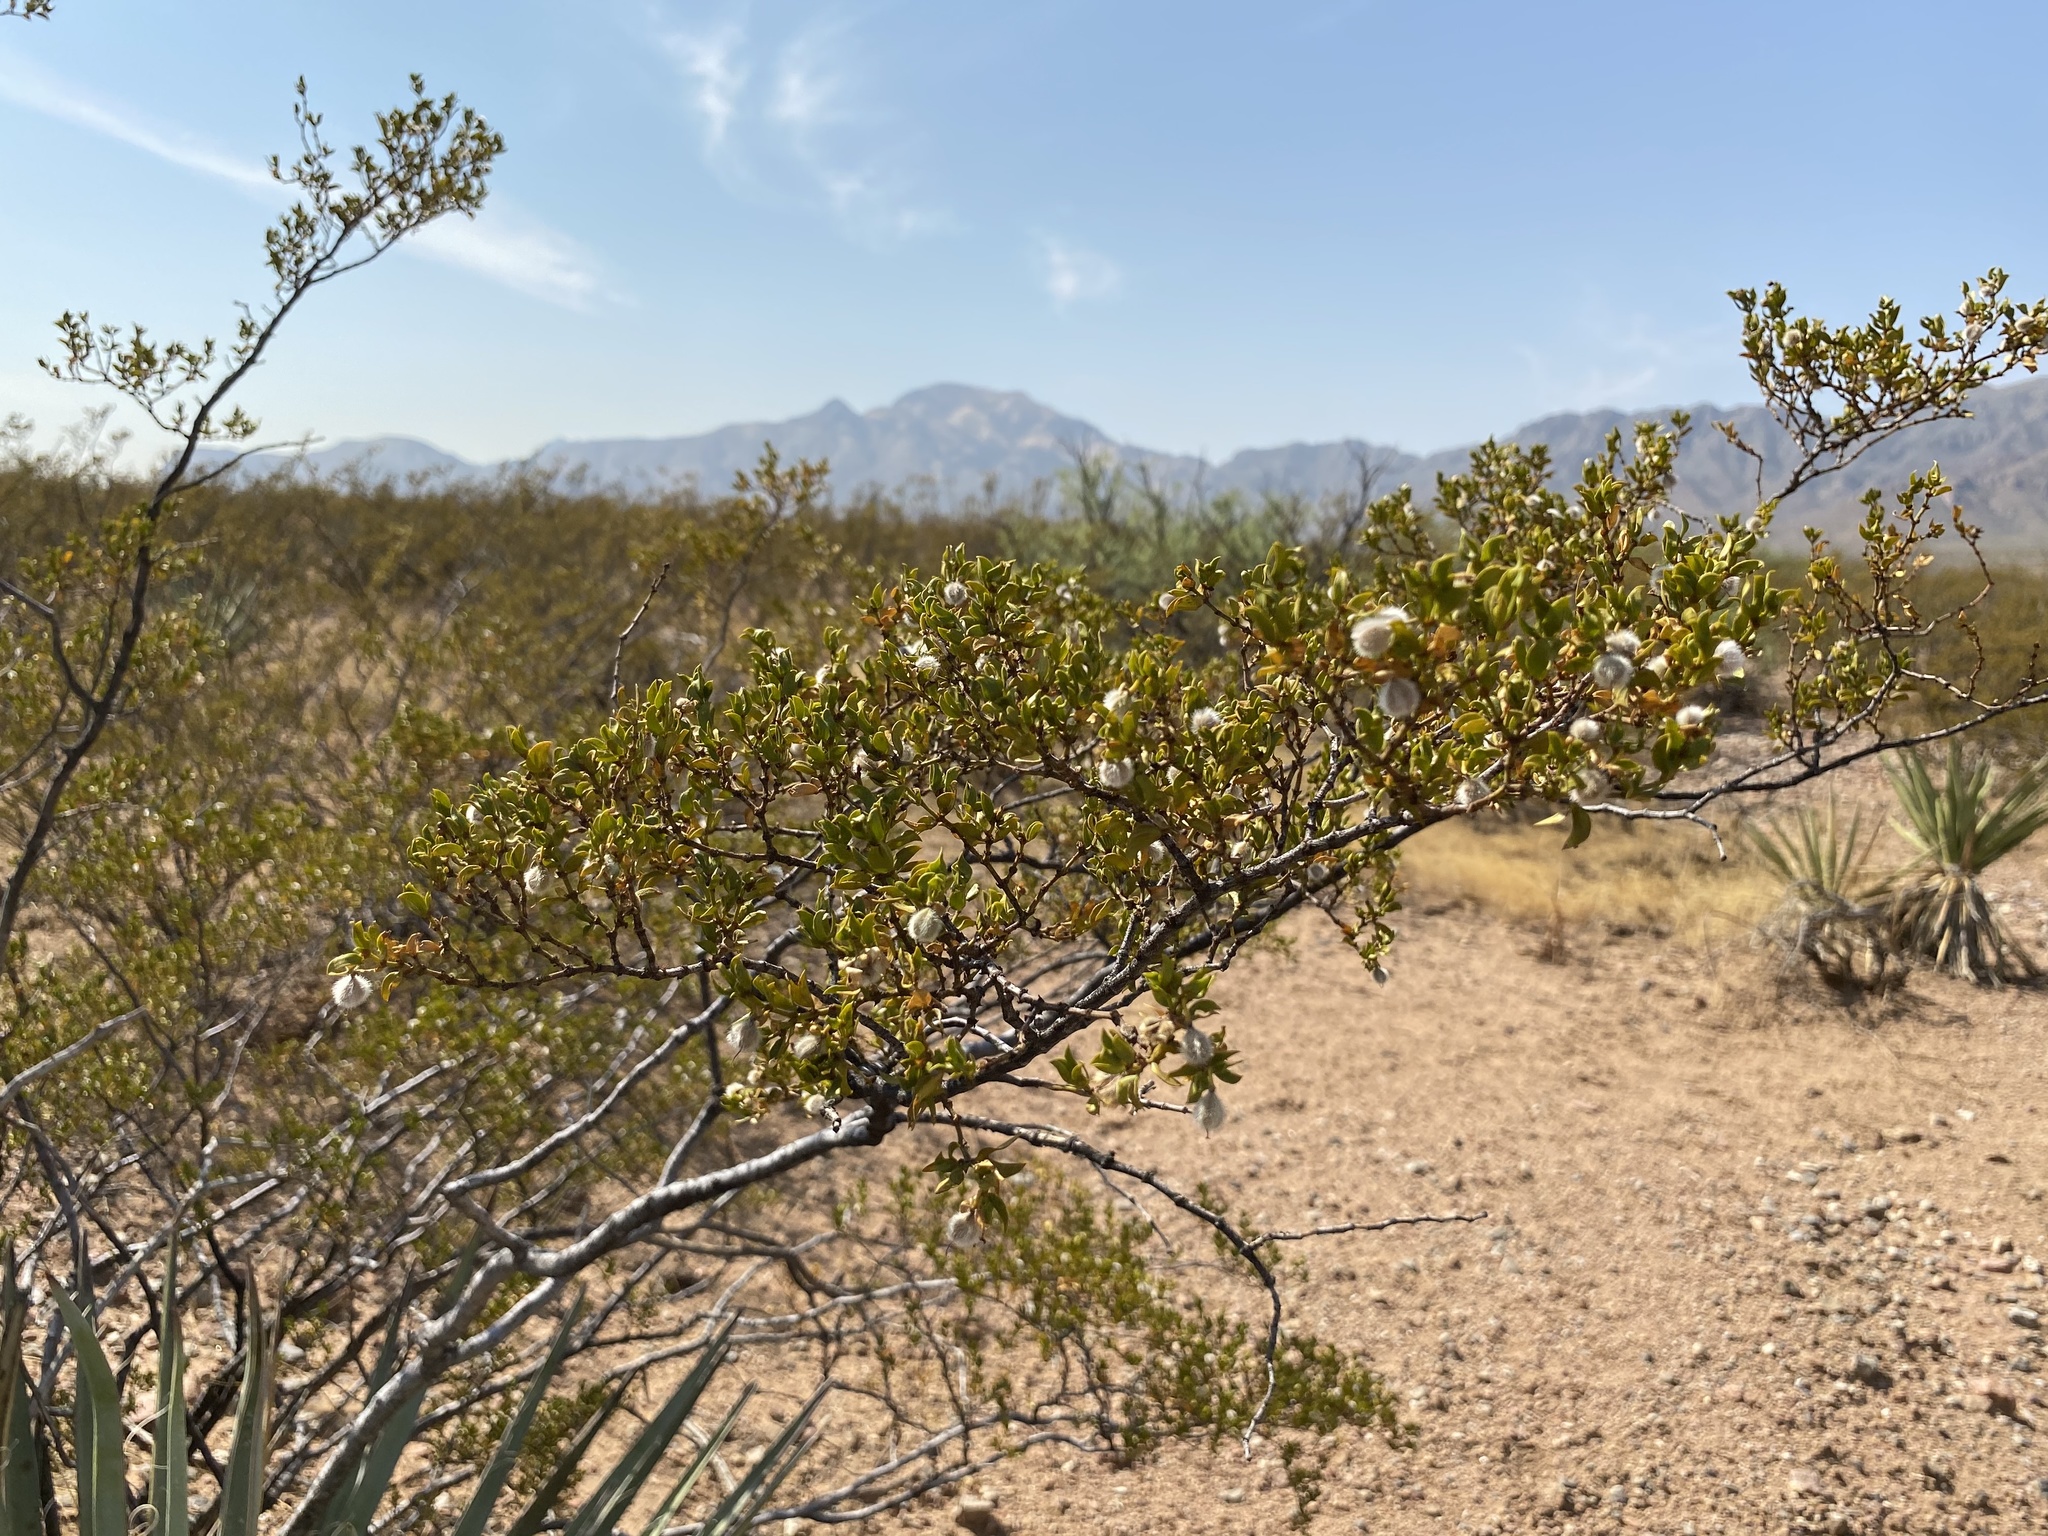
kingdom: Plantae
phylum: Tracheophyta
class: Magnoliopsida
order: Zygophyllales
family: Zygophyllaceae
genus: Larrea
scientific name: Larrea tridentata
